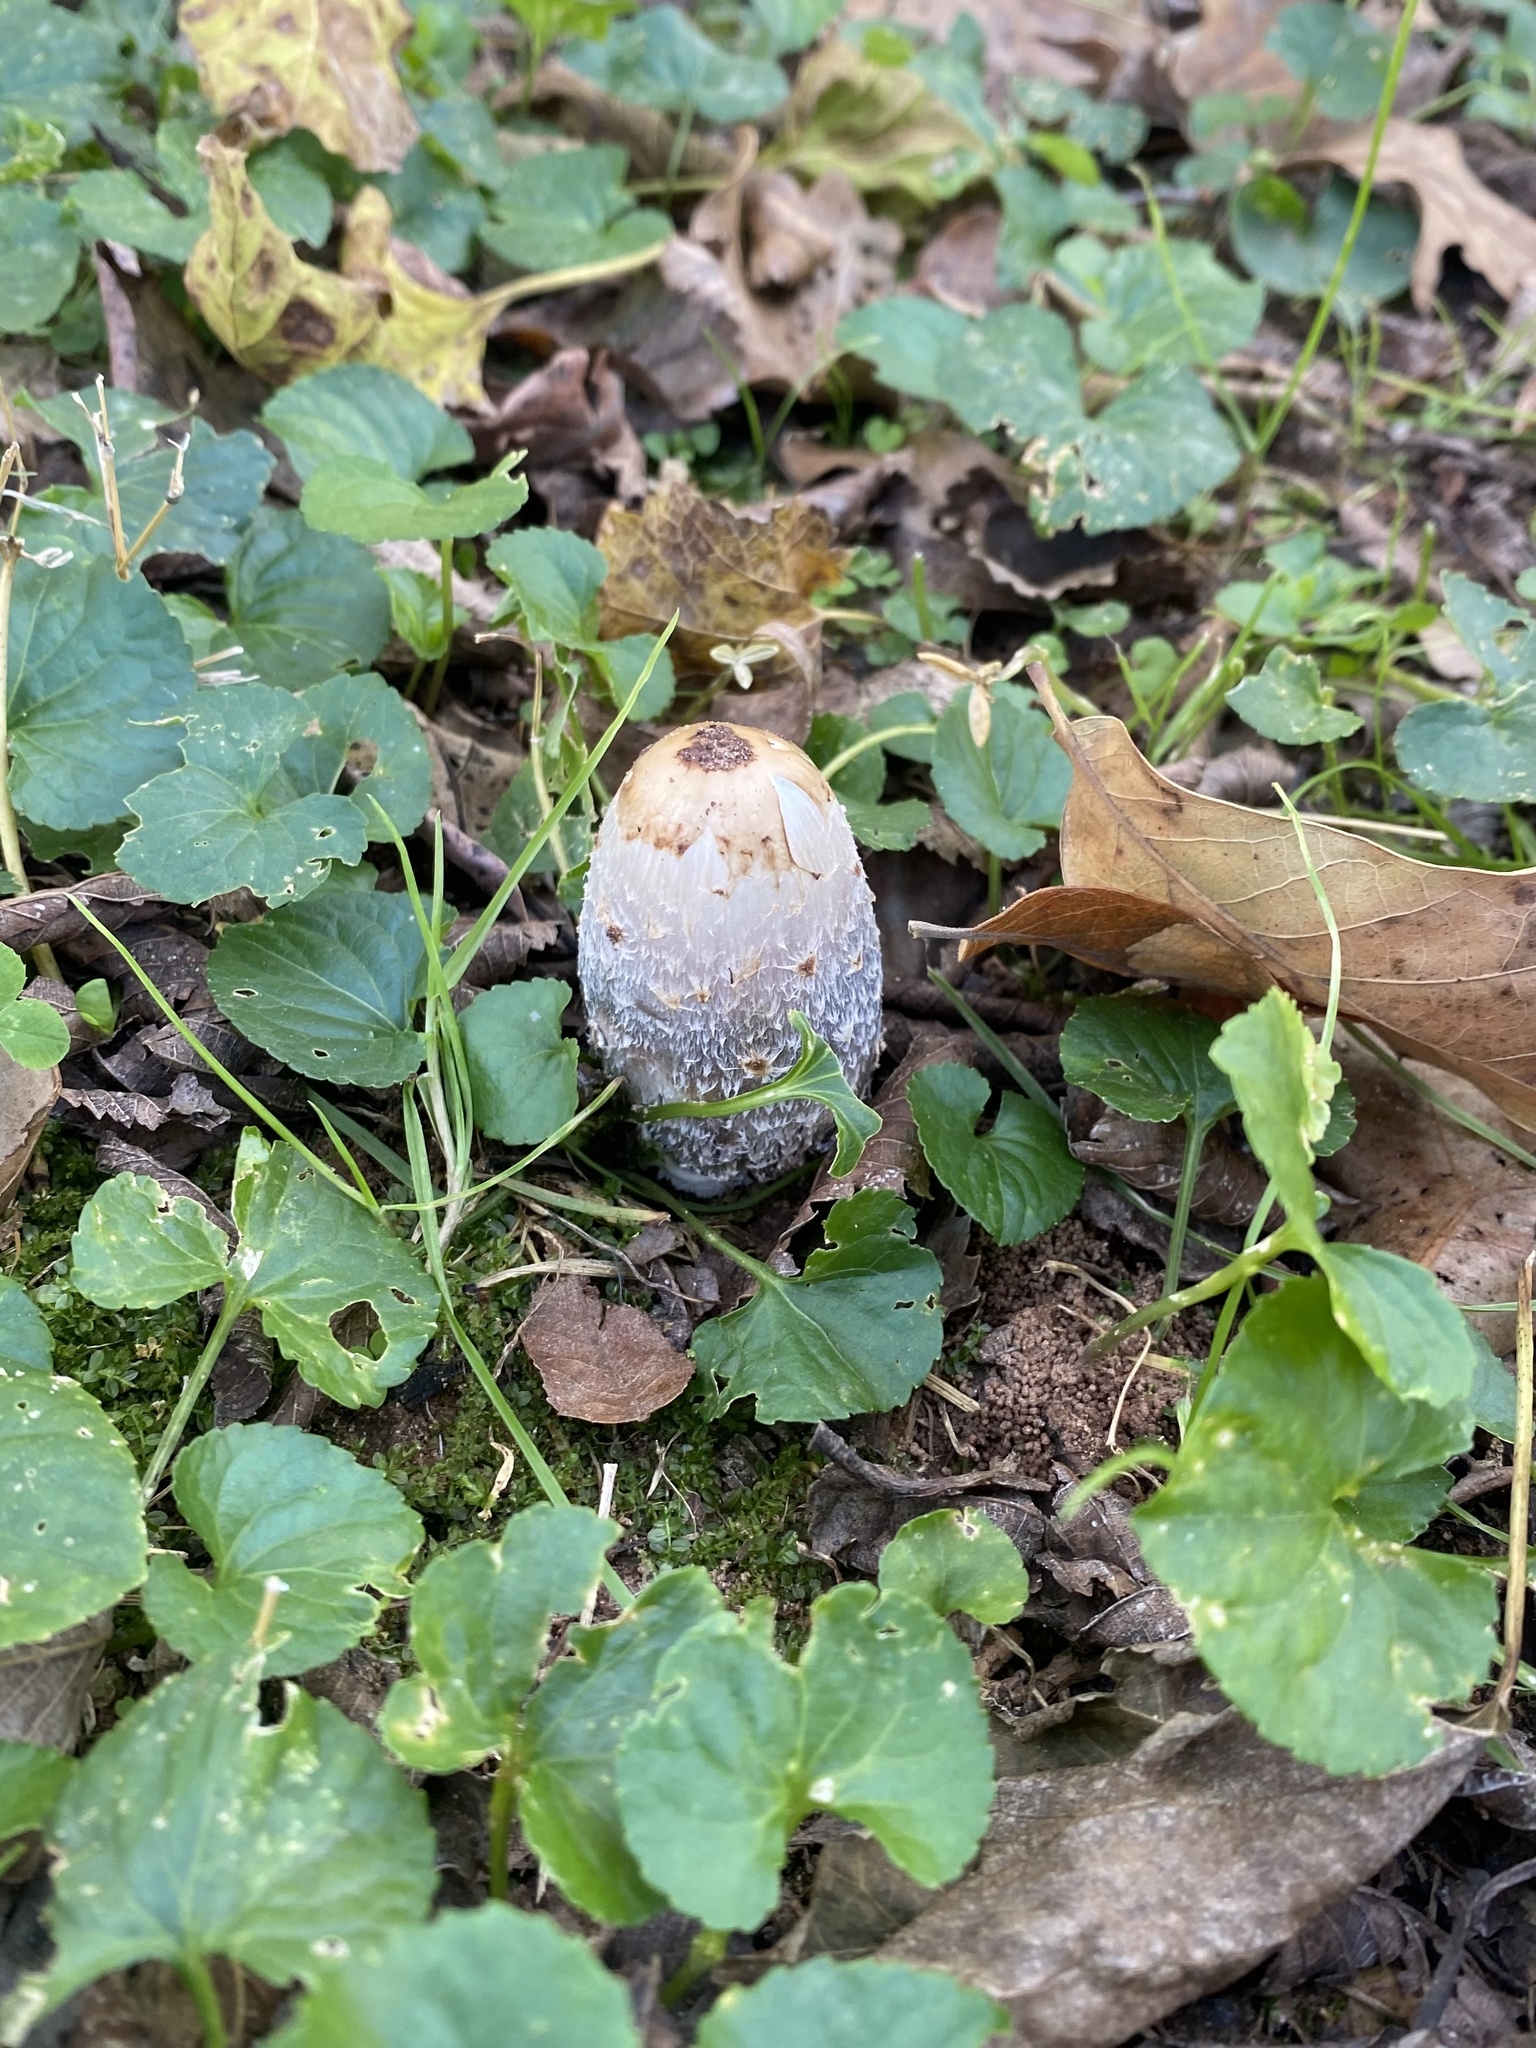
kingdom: Fungi
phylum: Basidiomycota
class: Agaricomycetes
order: Agaricales
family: Agaricaceae
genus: Coprinus
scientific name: Coprinus comatus
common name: Lawyer's wig
